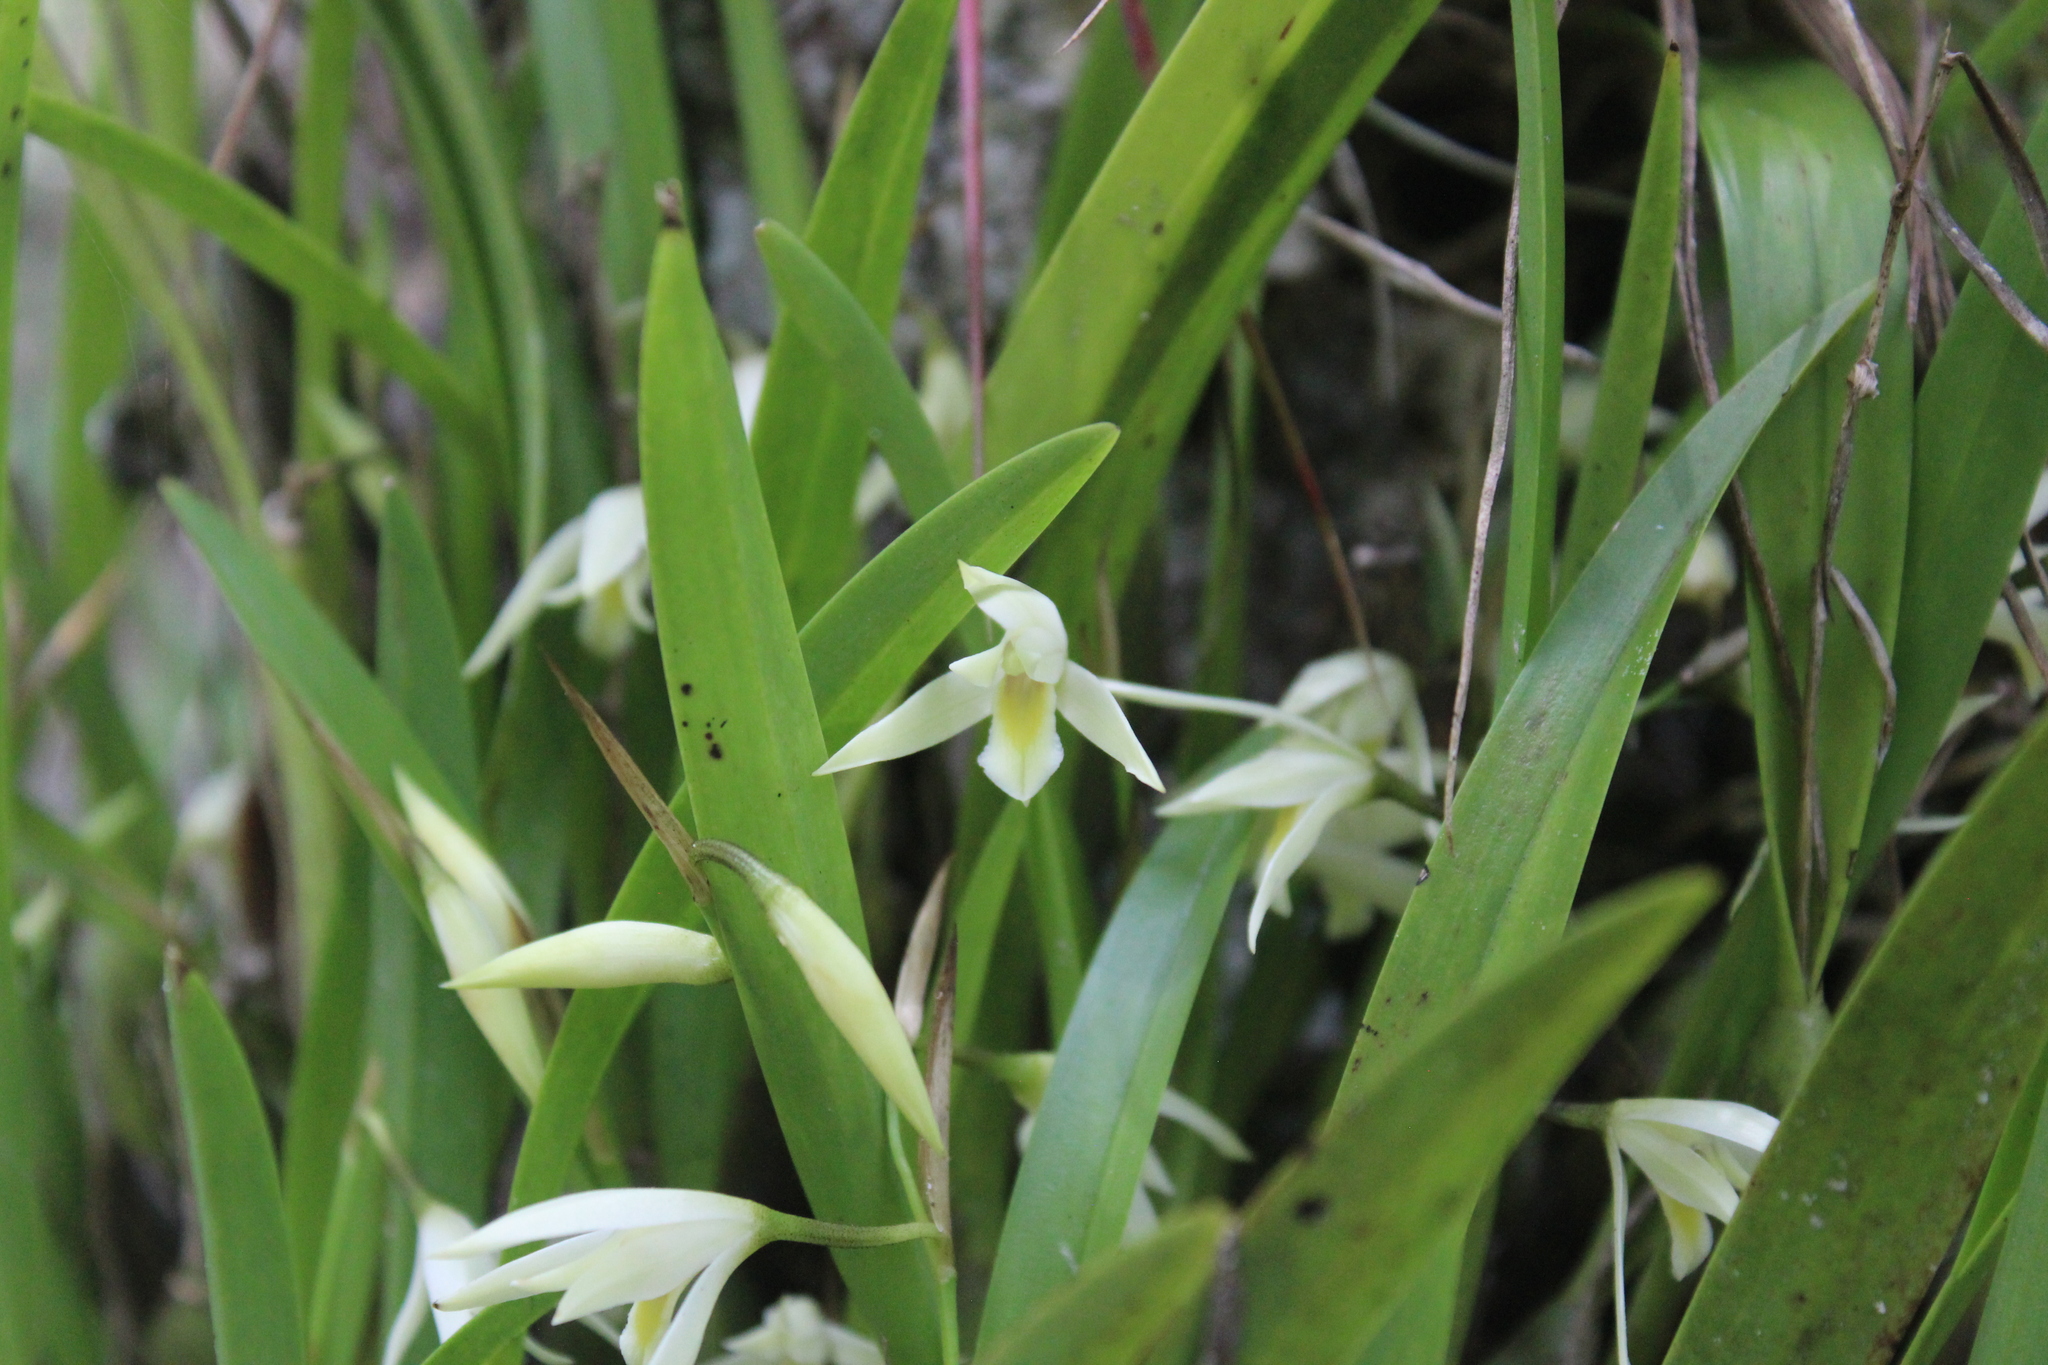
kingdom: Plantae
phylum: Tracheophyta
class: Liliopsida
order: Asparagales
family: Orchidaceae
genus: Nidema
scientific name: Nidema boothii
